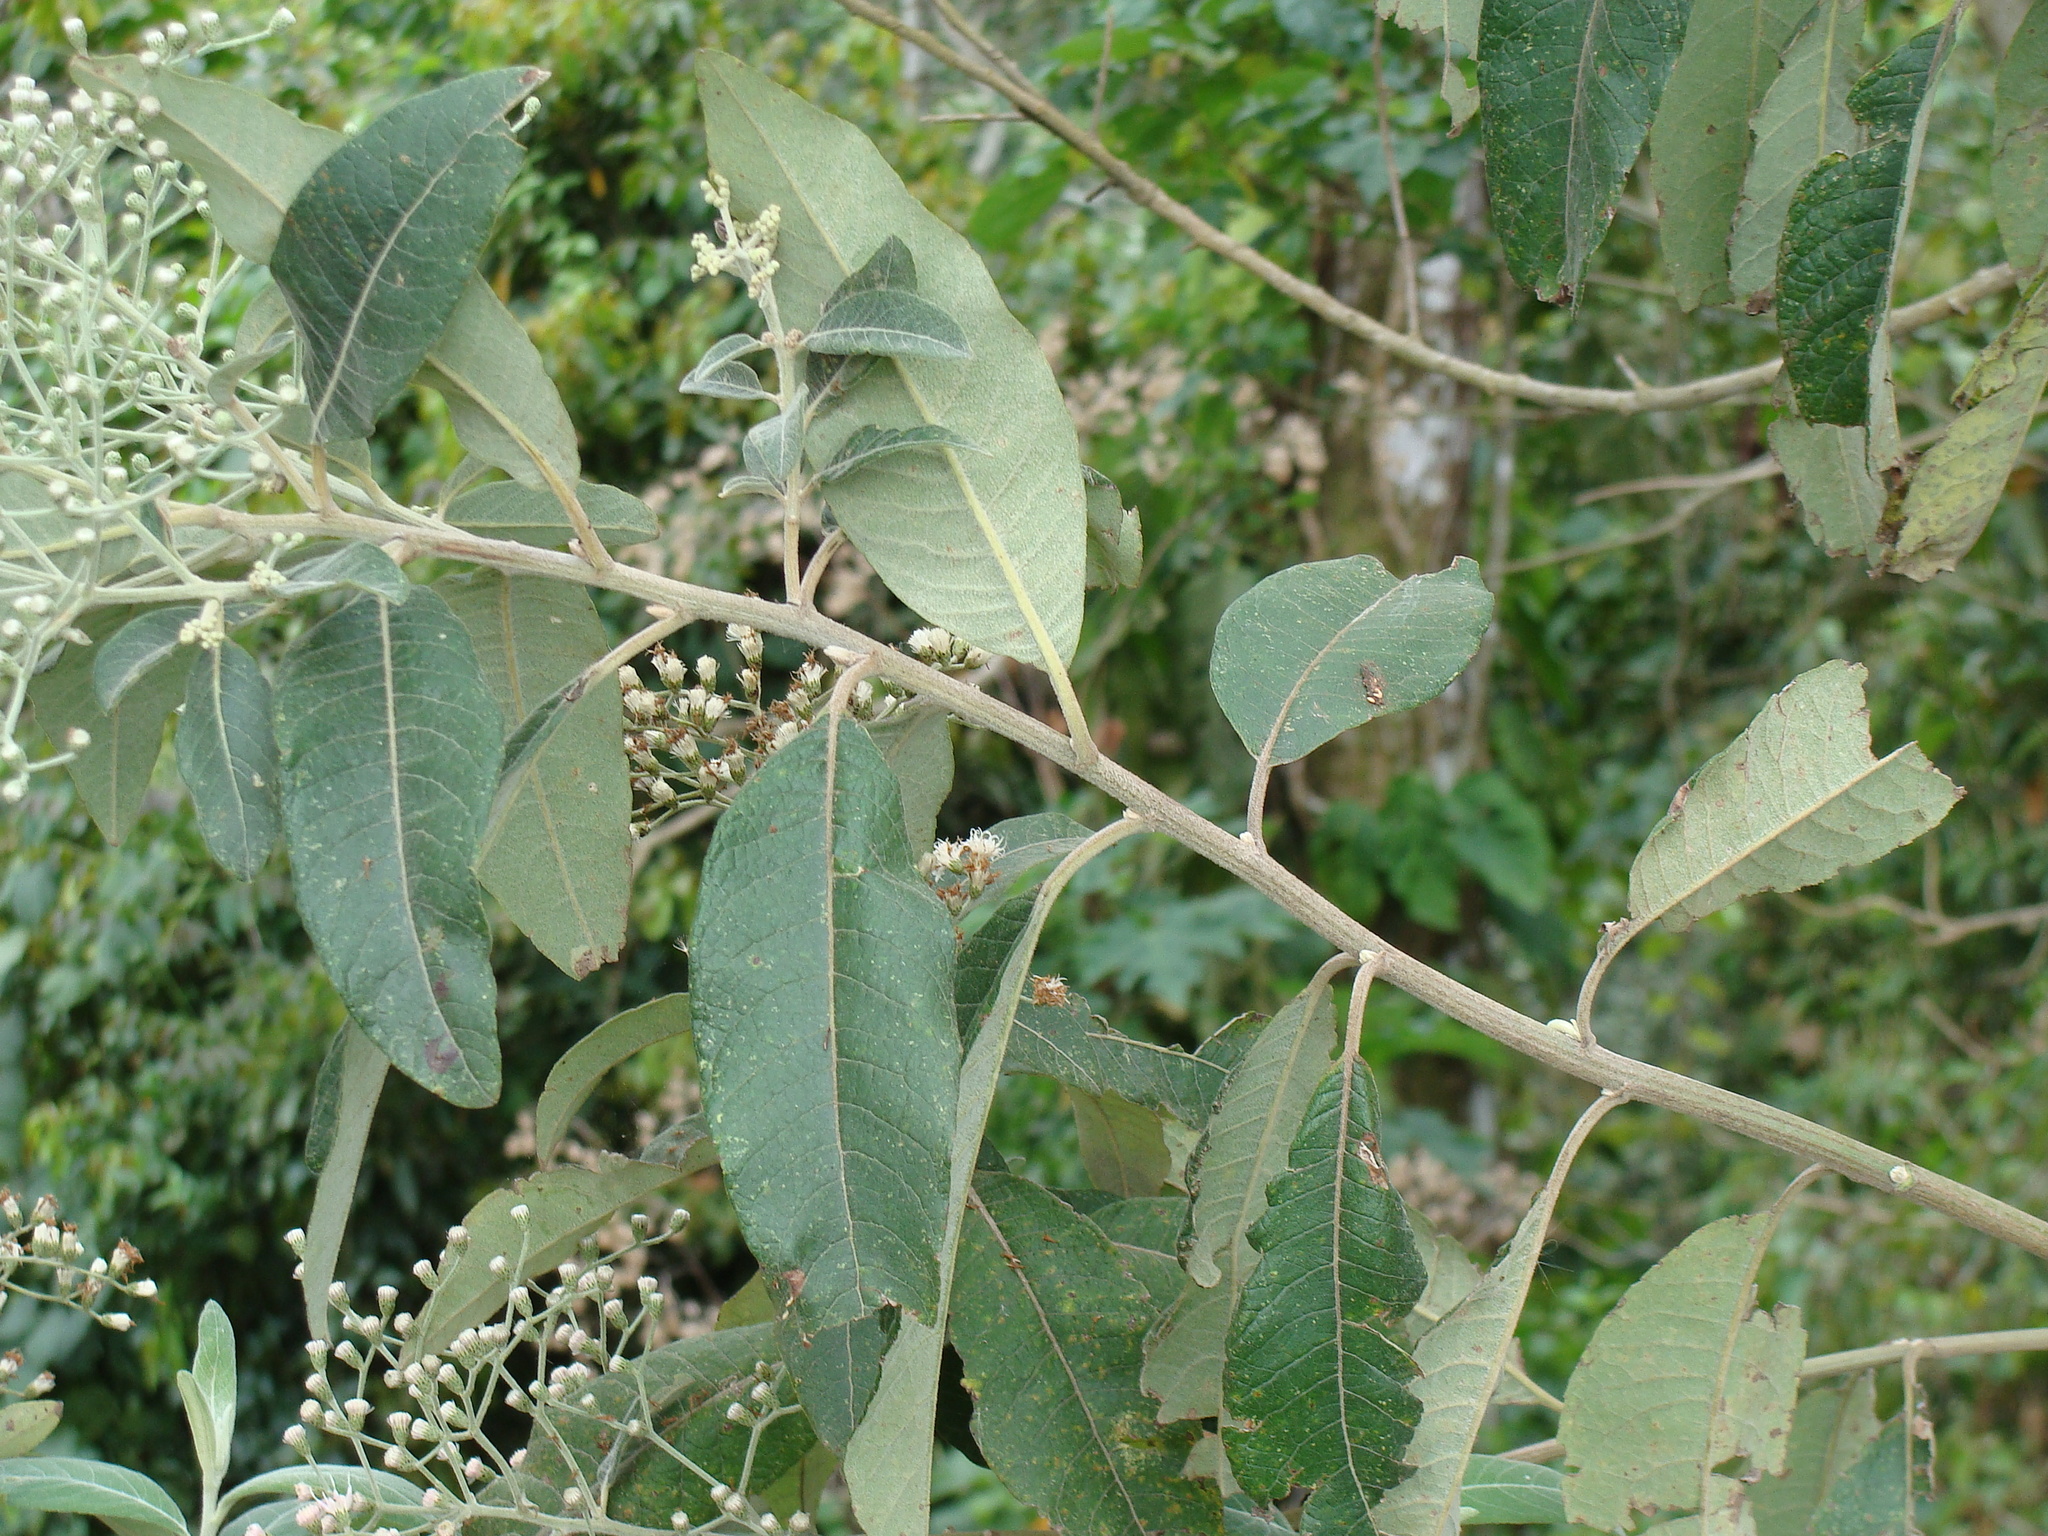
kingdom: Plantae
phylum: Tracheophyta
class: Magnoliopsida
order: Asterales
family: Asteraceae
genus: Lepidaploa
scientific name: Lepidaploa polypleura
